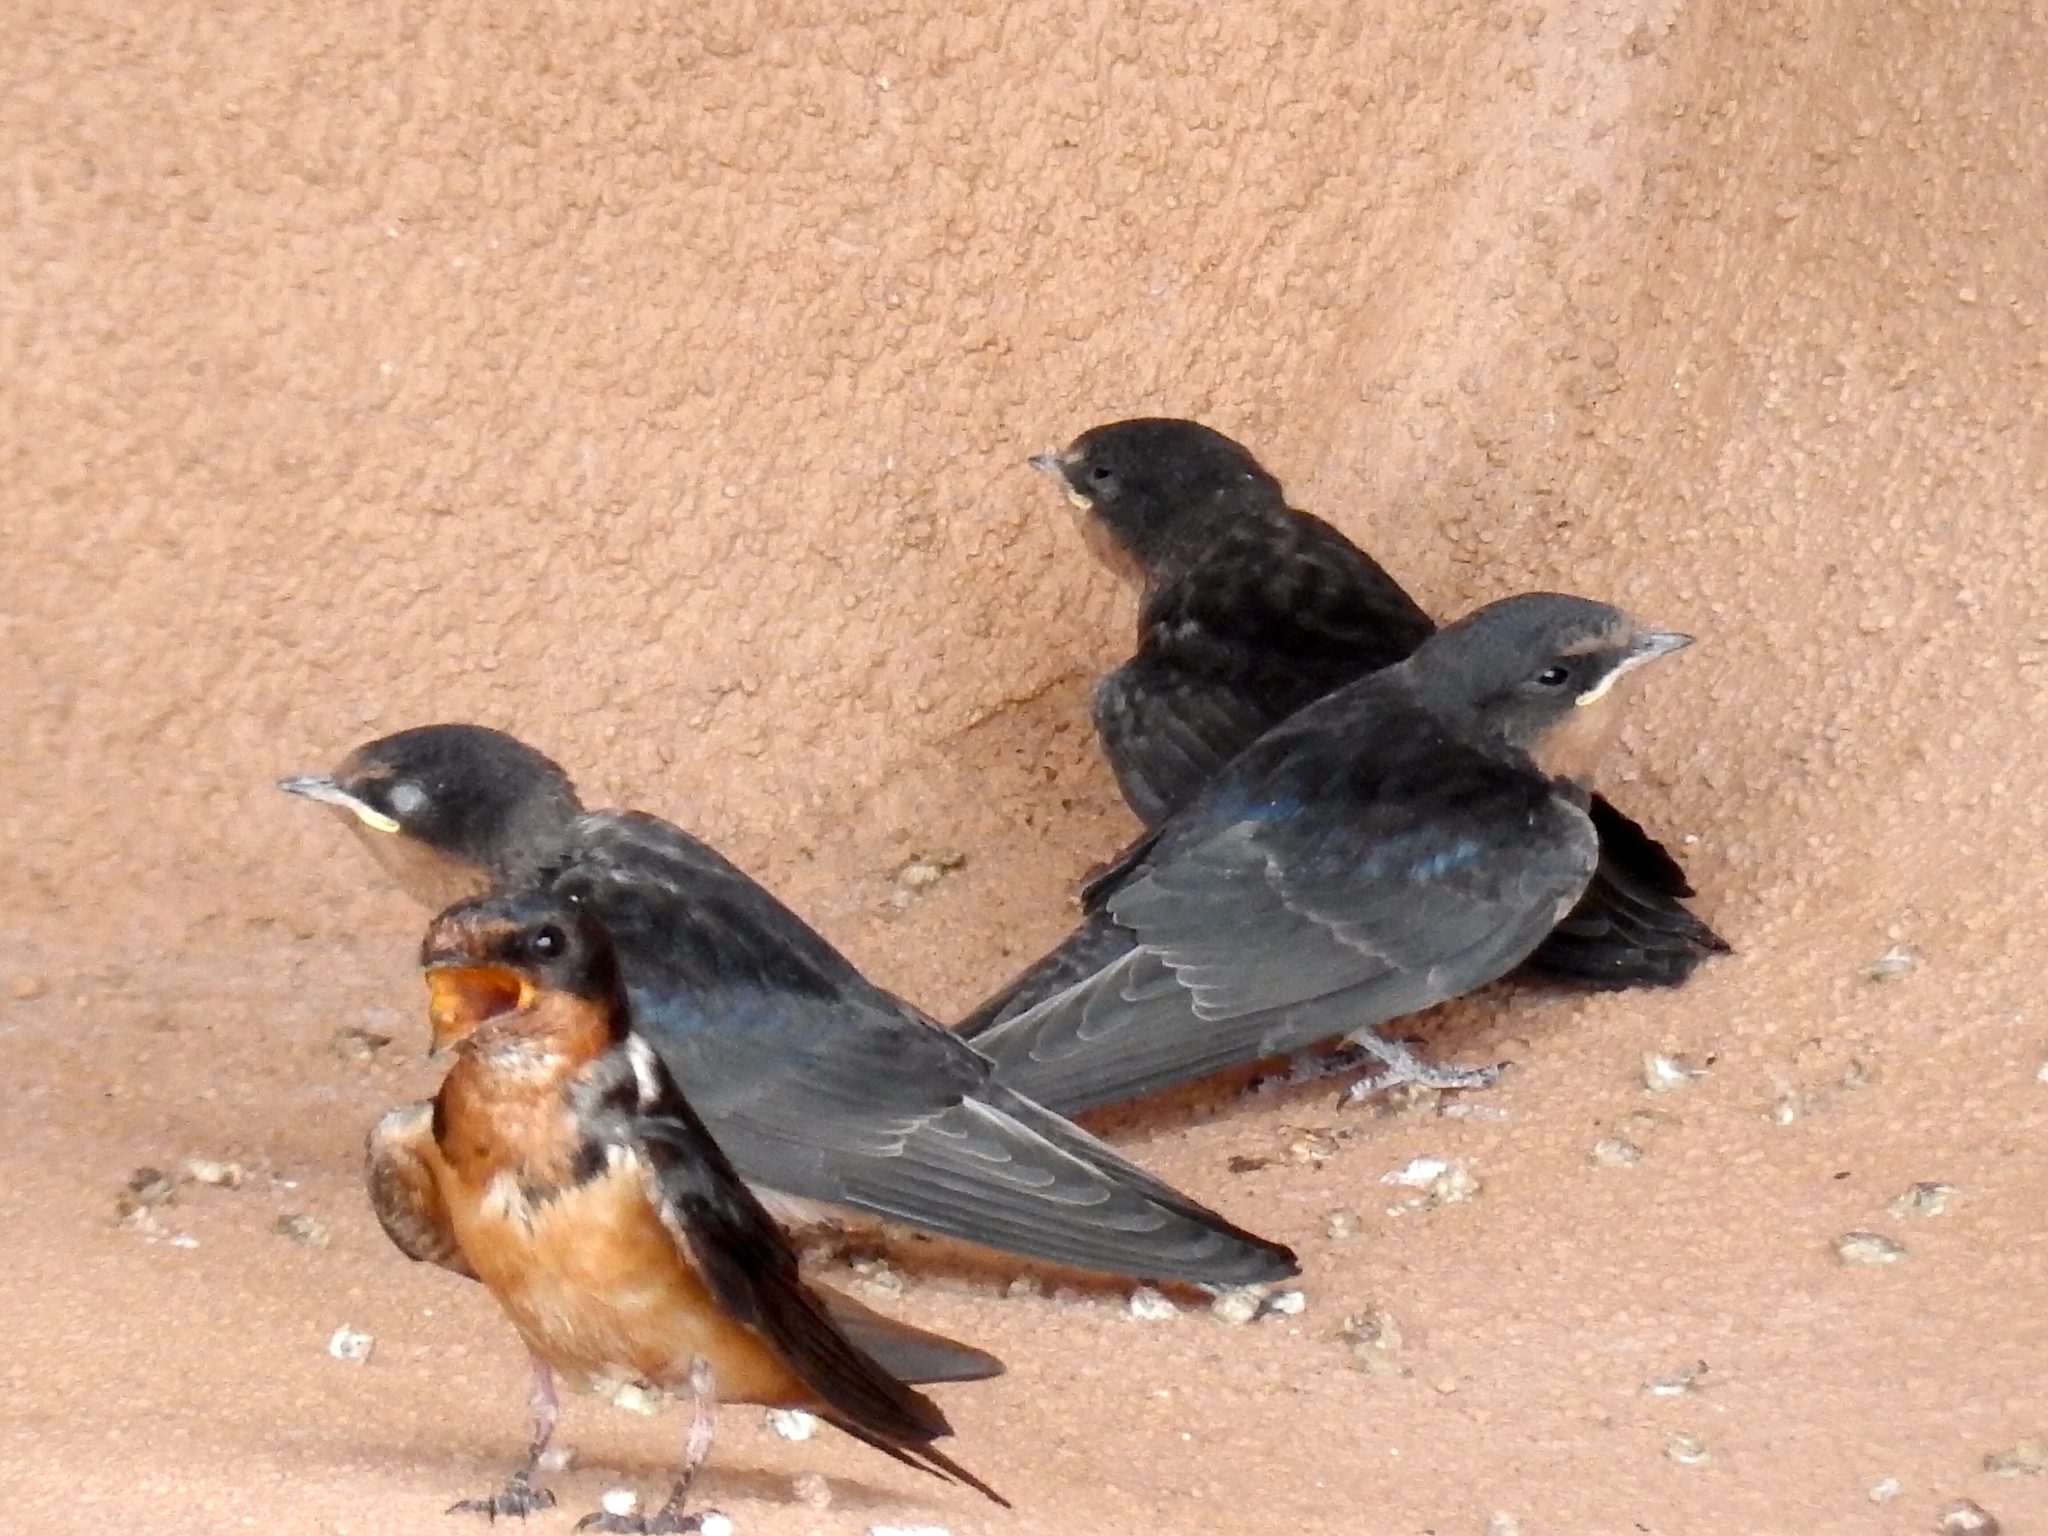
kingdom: Animalia
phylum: Chordata
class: Aves
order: Passeriformes
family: Hirundinidae
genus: Hirundo
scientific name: Hirundo rustica
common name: Barn swallow
